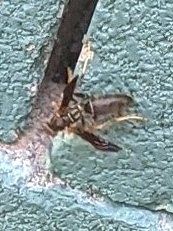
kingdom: Animalia
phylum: Arthropoda
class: Insecta
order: Hymenoptera
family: Eumenidae
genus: Polistes
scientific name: Polistes fuscatus
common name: Dark paper wasp
